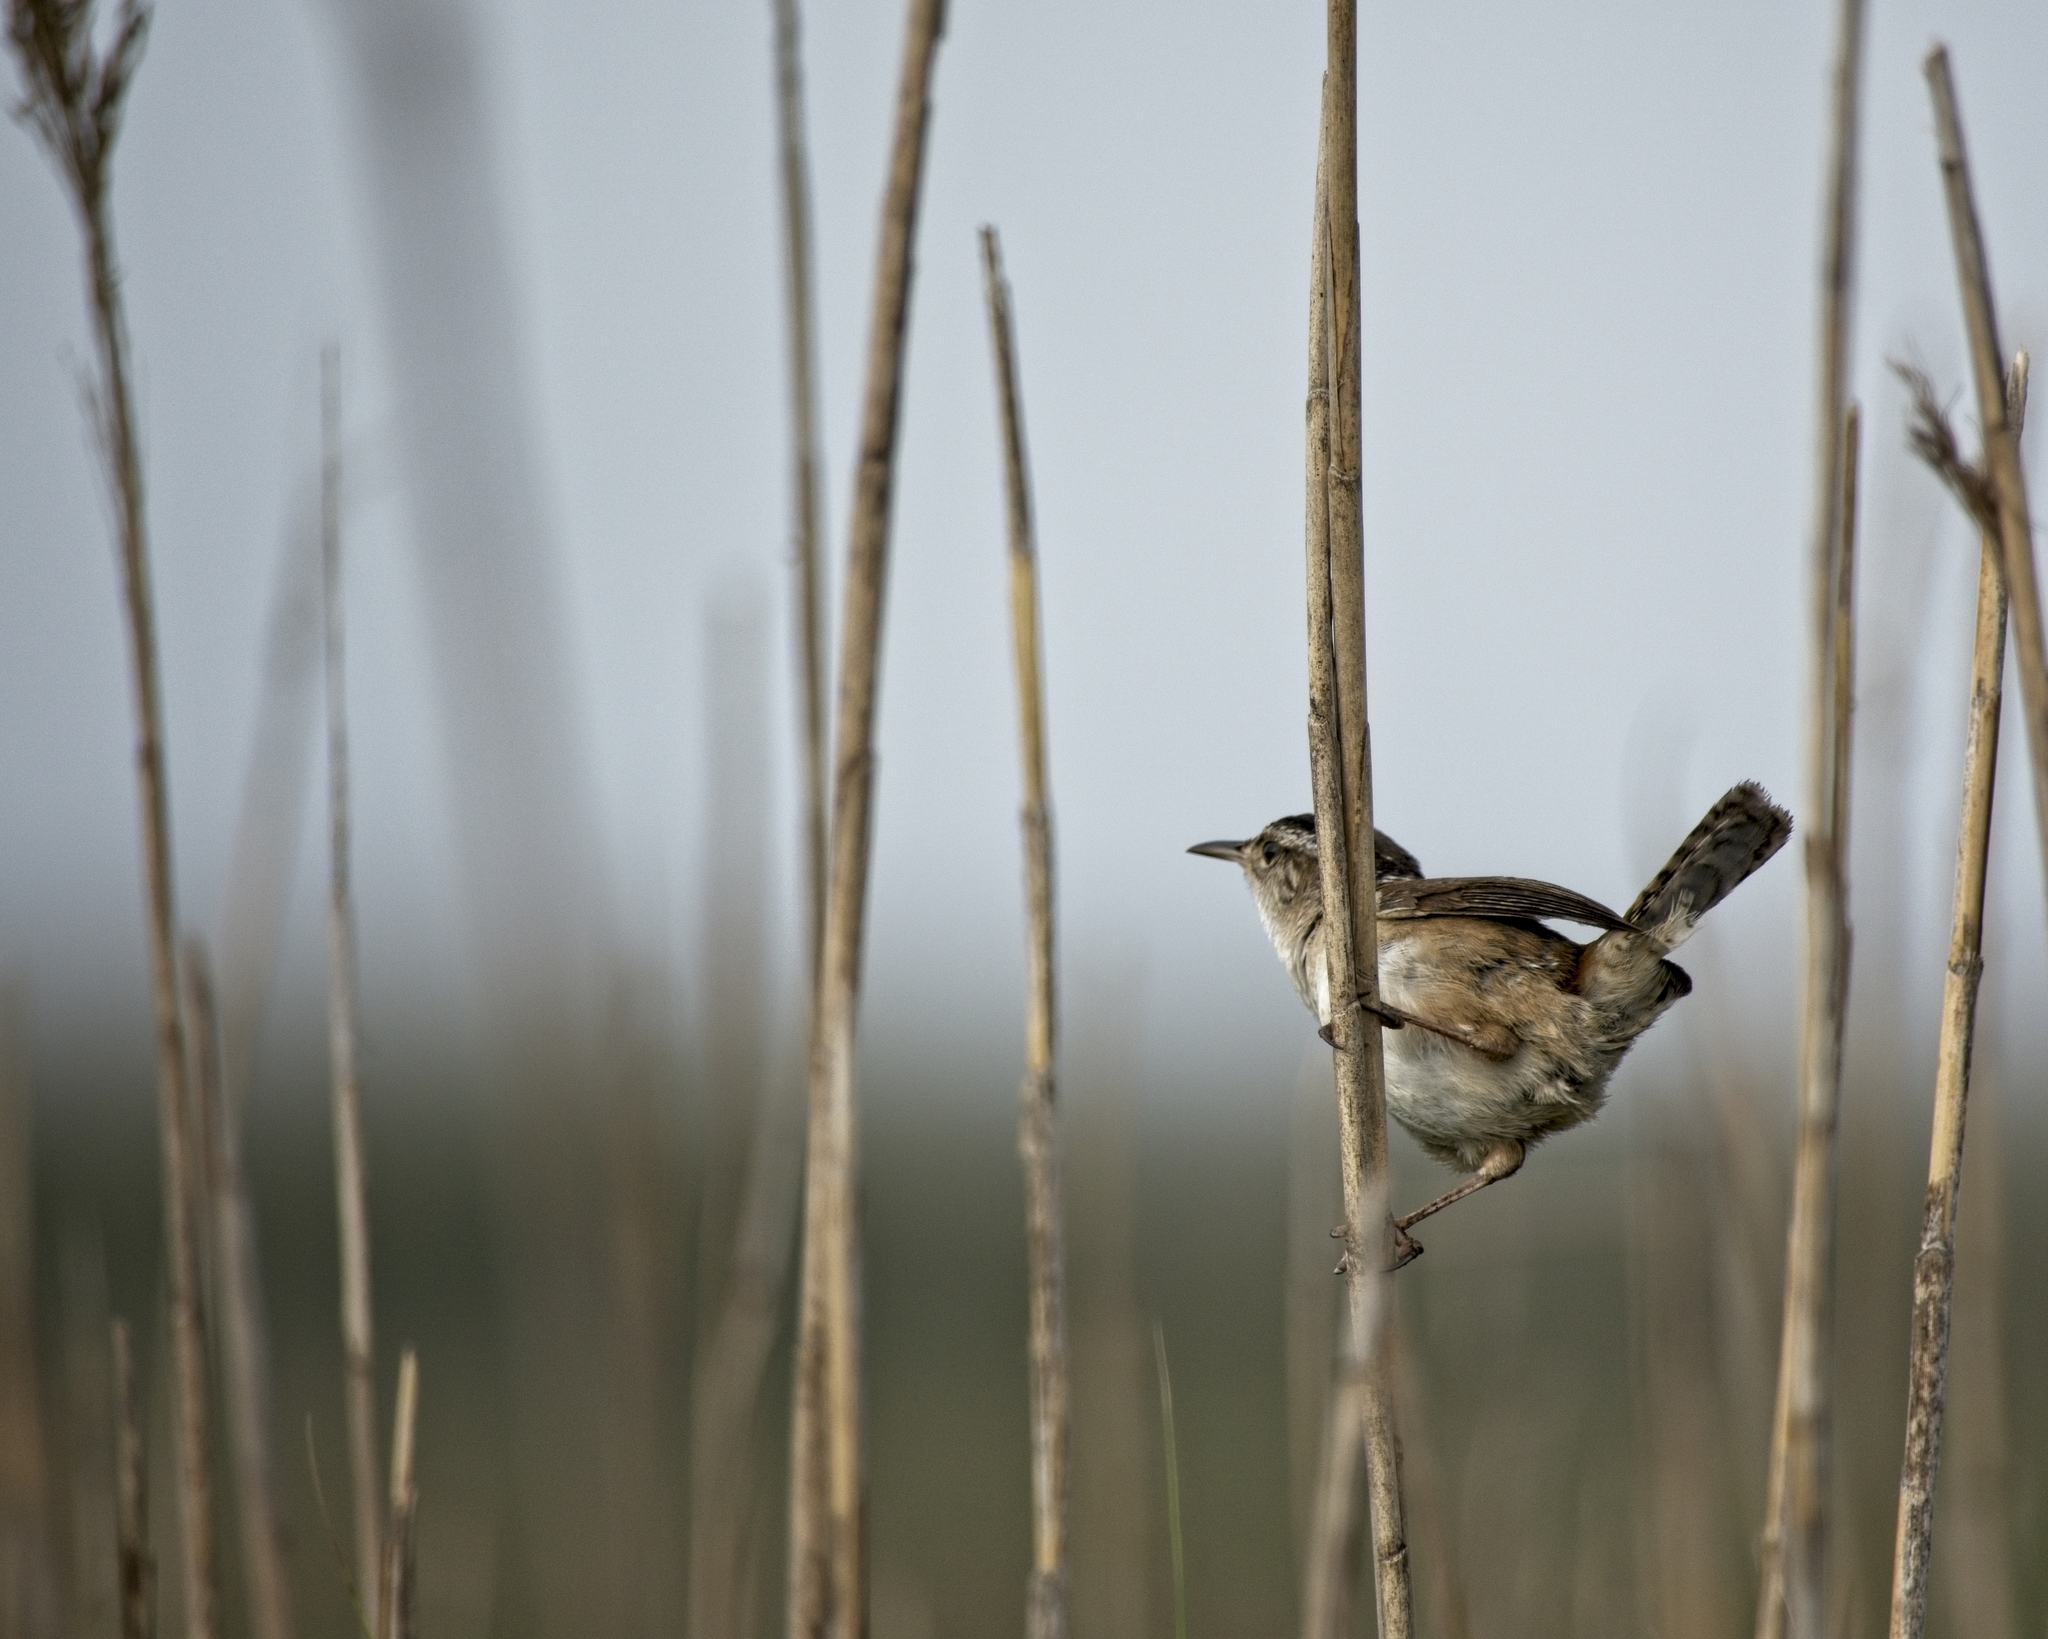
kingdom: Animalia
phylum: Chordata
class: Aves
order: Passeriformes
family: Troglodytidae
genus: Cistothorus
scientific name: Cistothorus palustris
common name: Marsh wren
